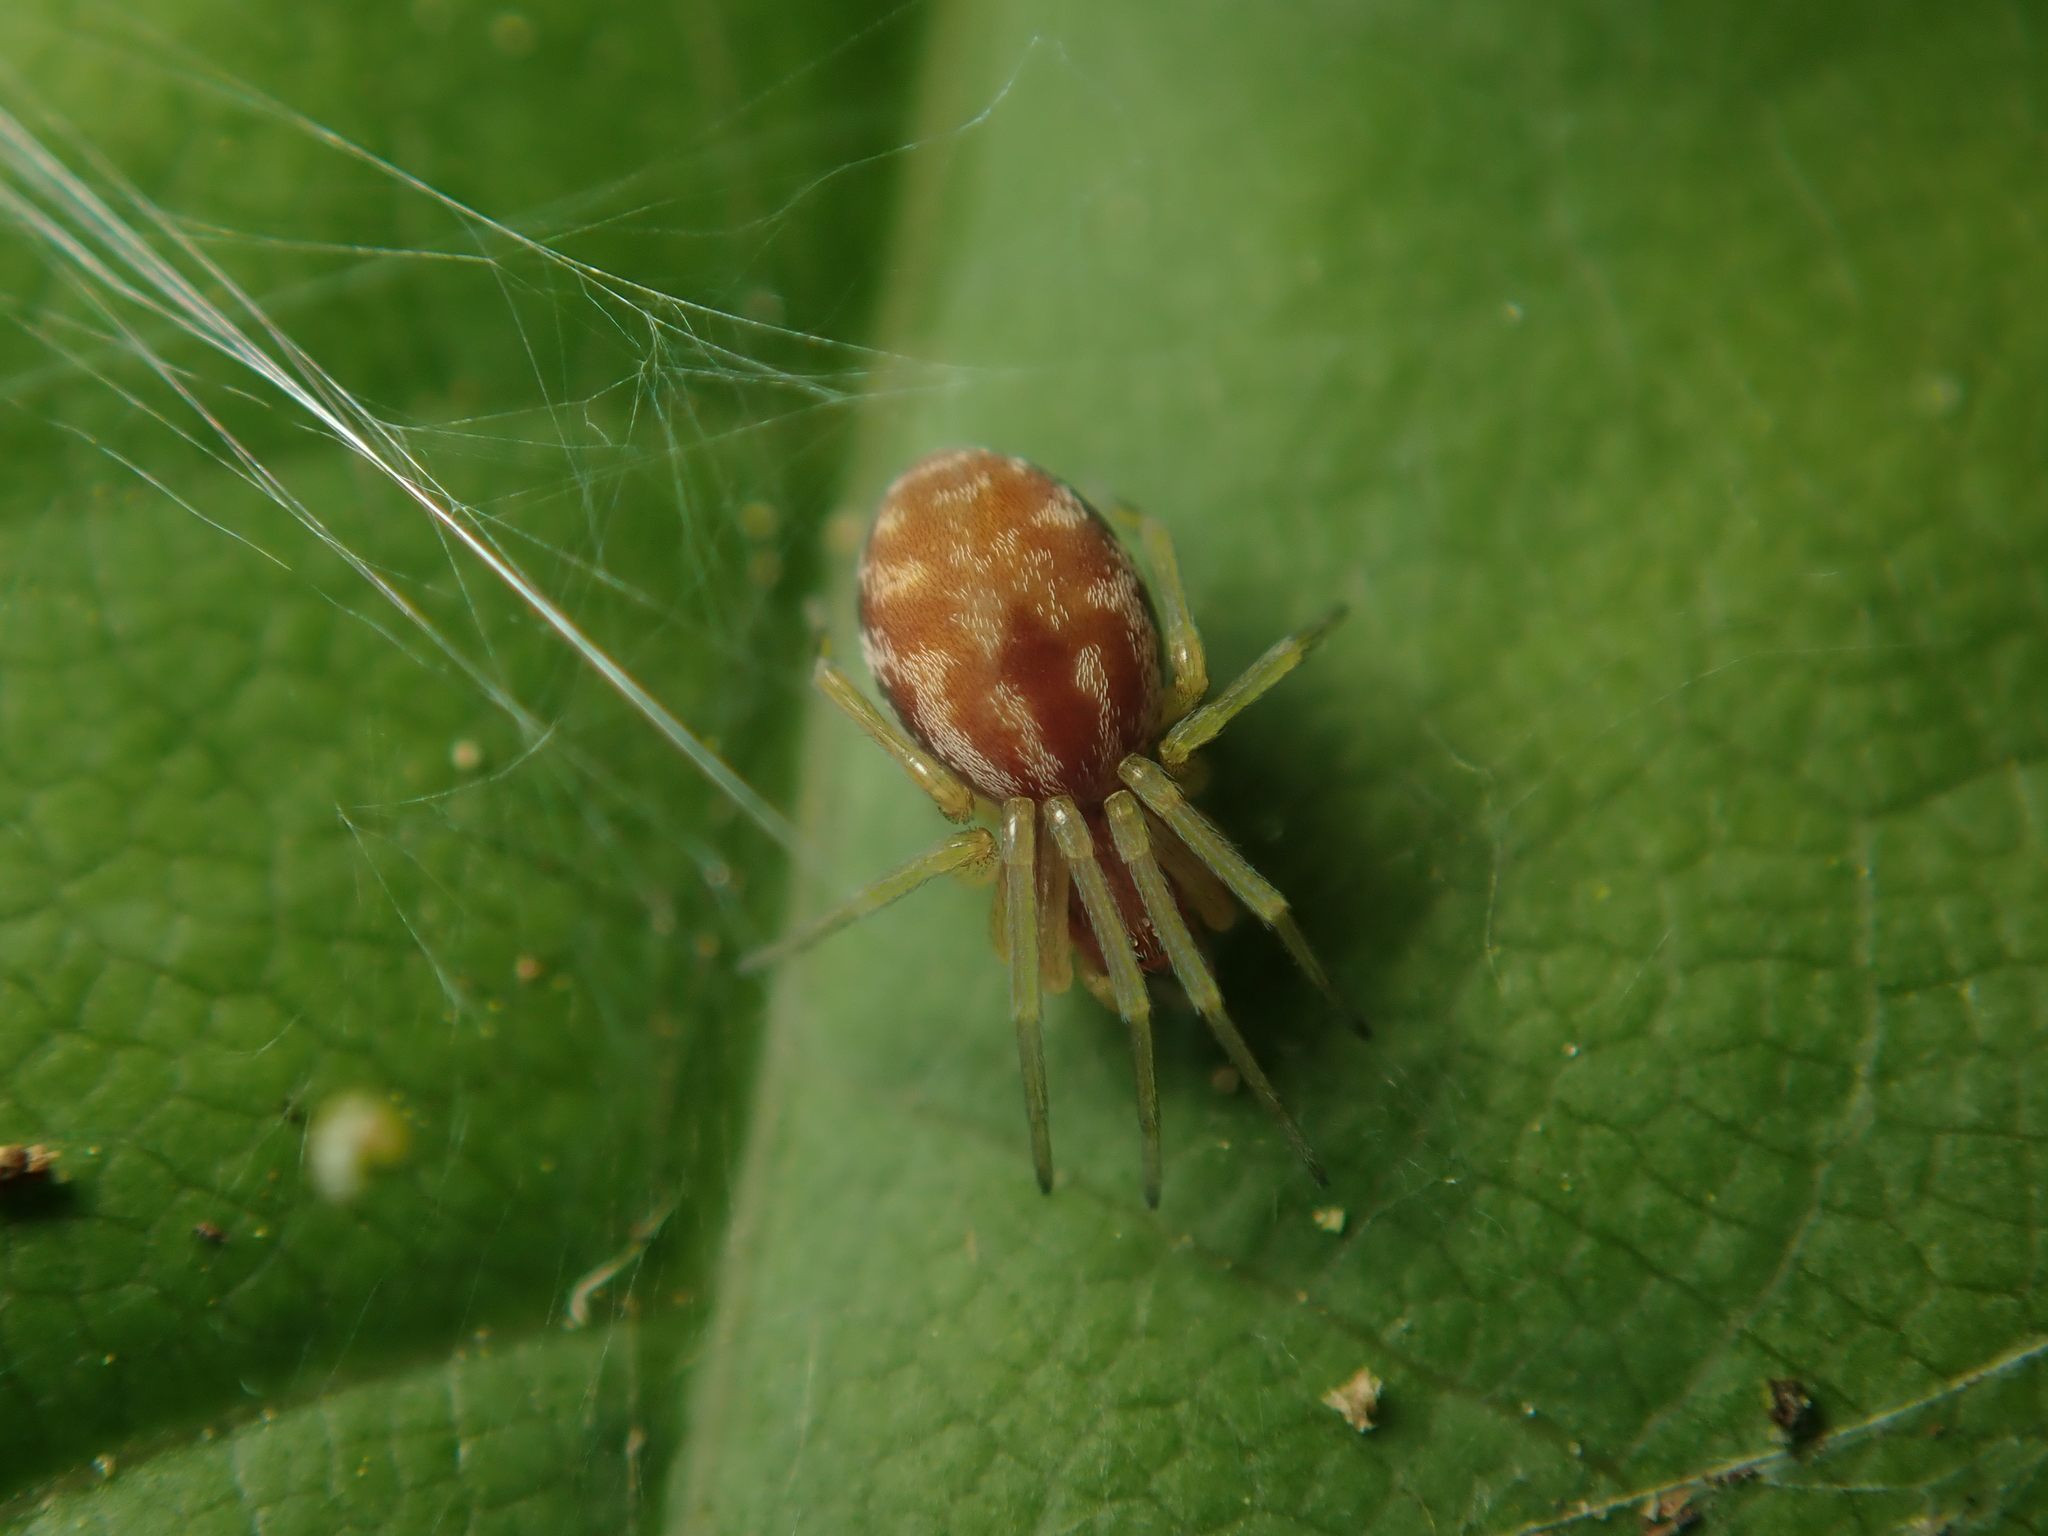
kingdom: Animalia
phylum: Arthropoda
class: Arachnida
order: Araneae
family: Dictynidae
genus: Nigma
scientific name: Nigma flavescens
